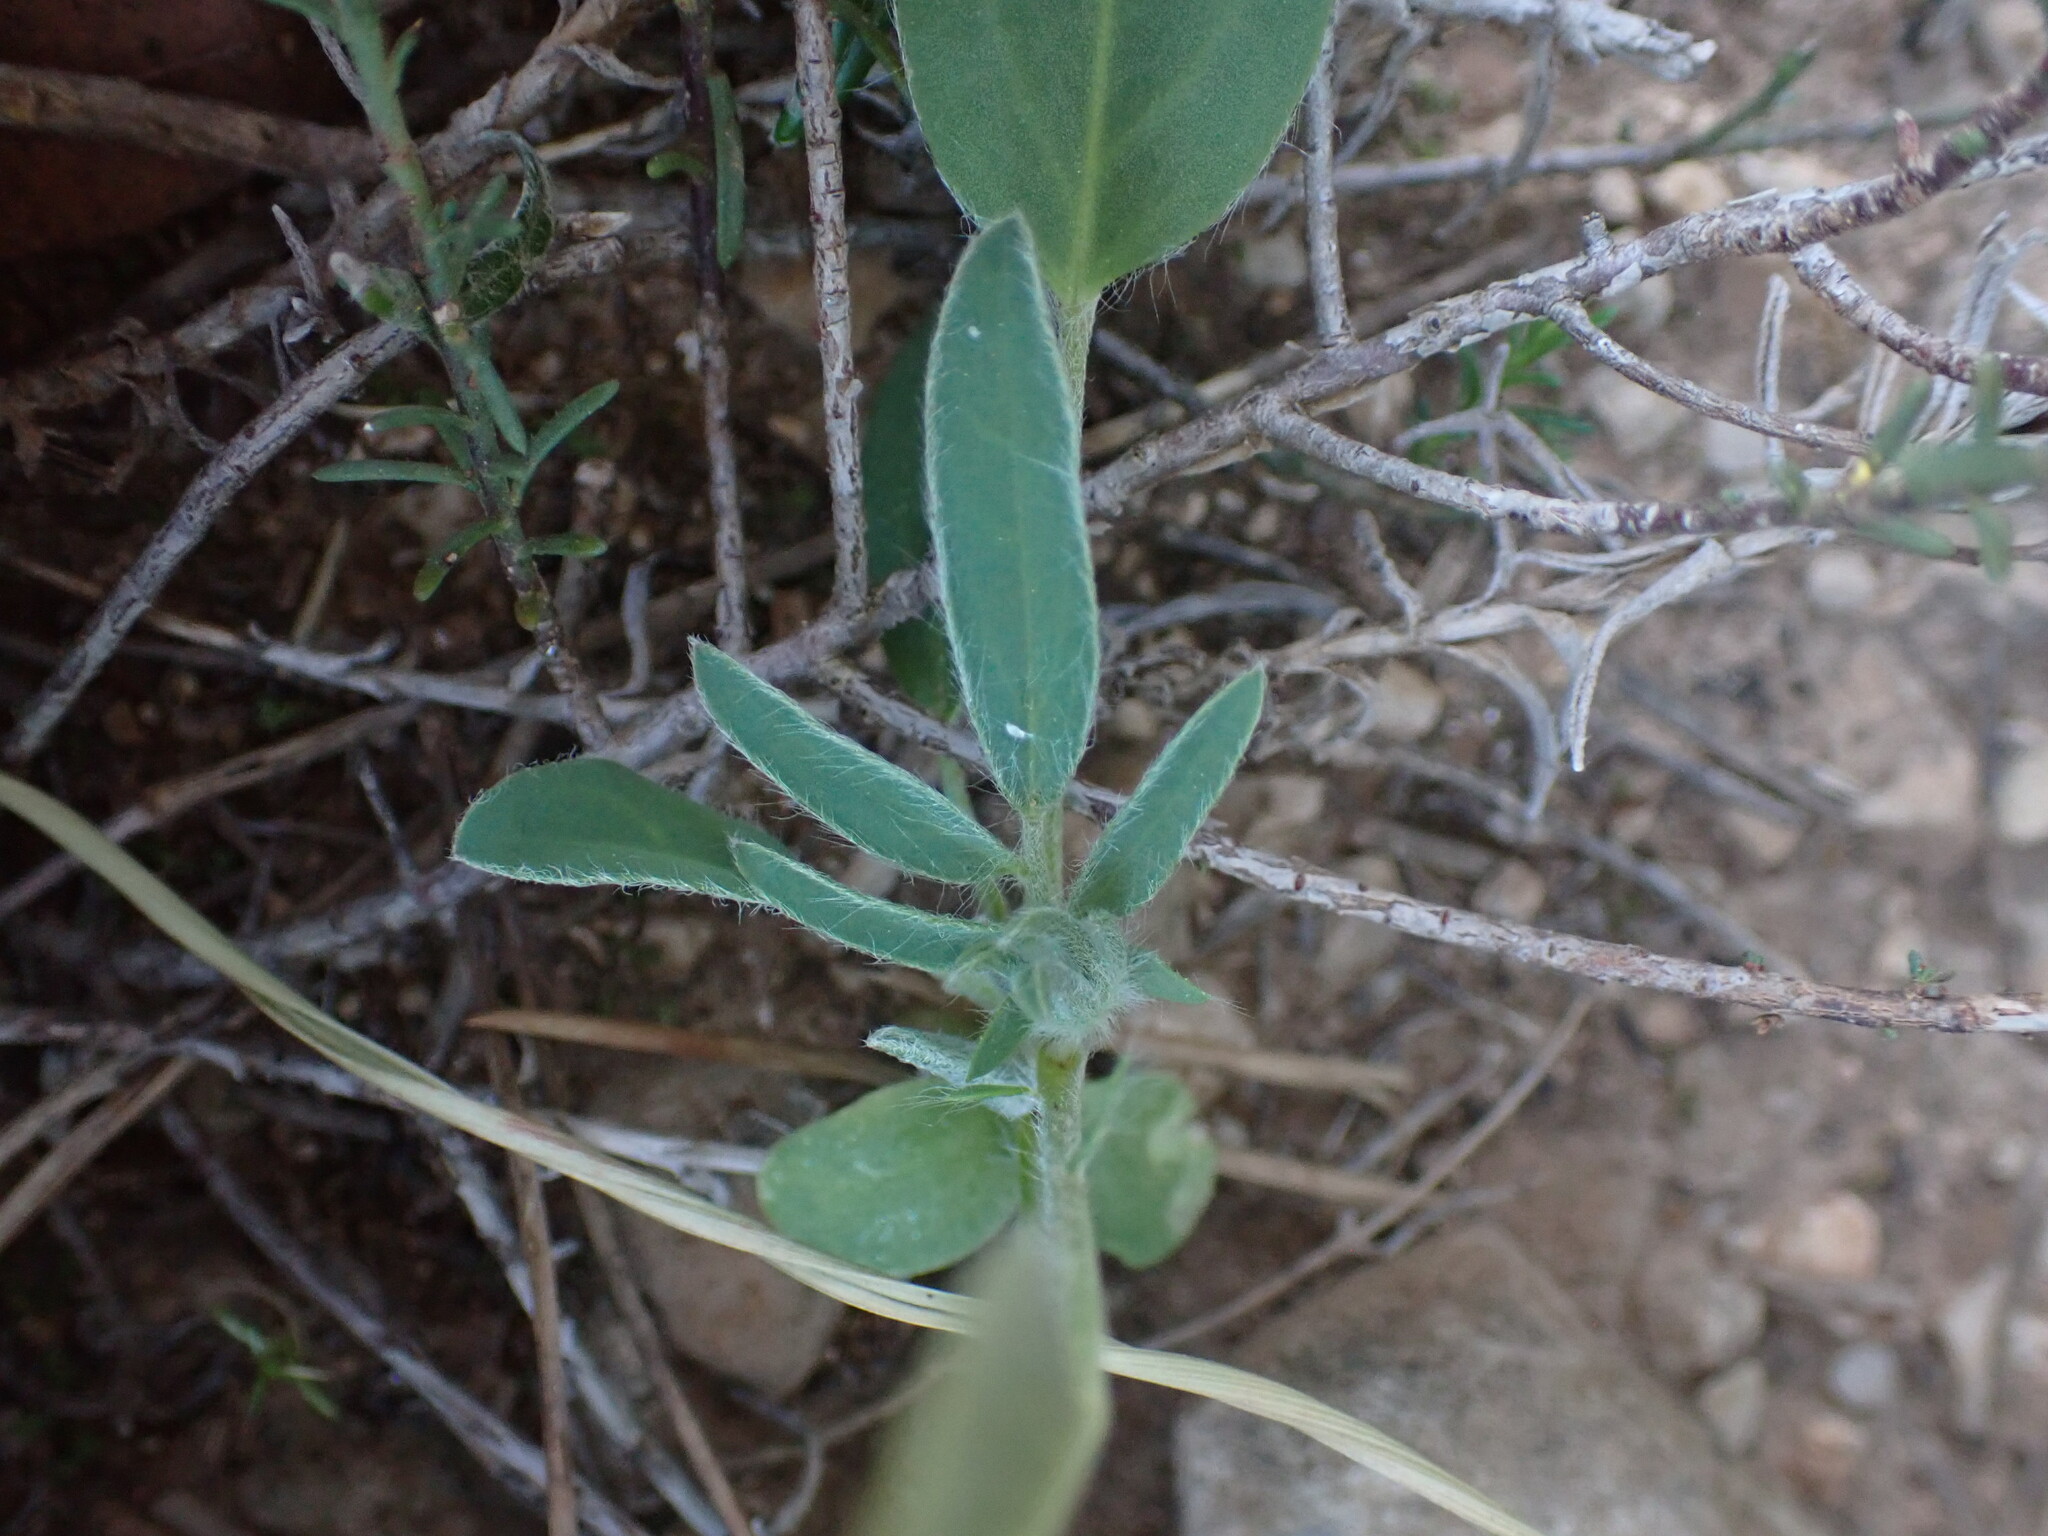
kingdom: Plantae
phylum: Tracheophyta
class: Magnoliopsida
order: Fabales
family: Fabaceae
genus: Anthyllis
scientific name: Anthyllis vulneraria
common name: Kidney vetch
